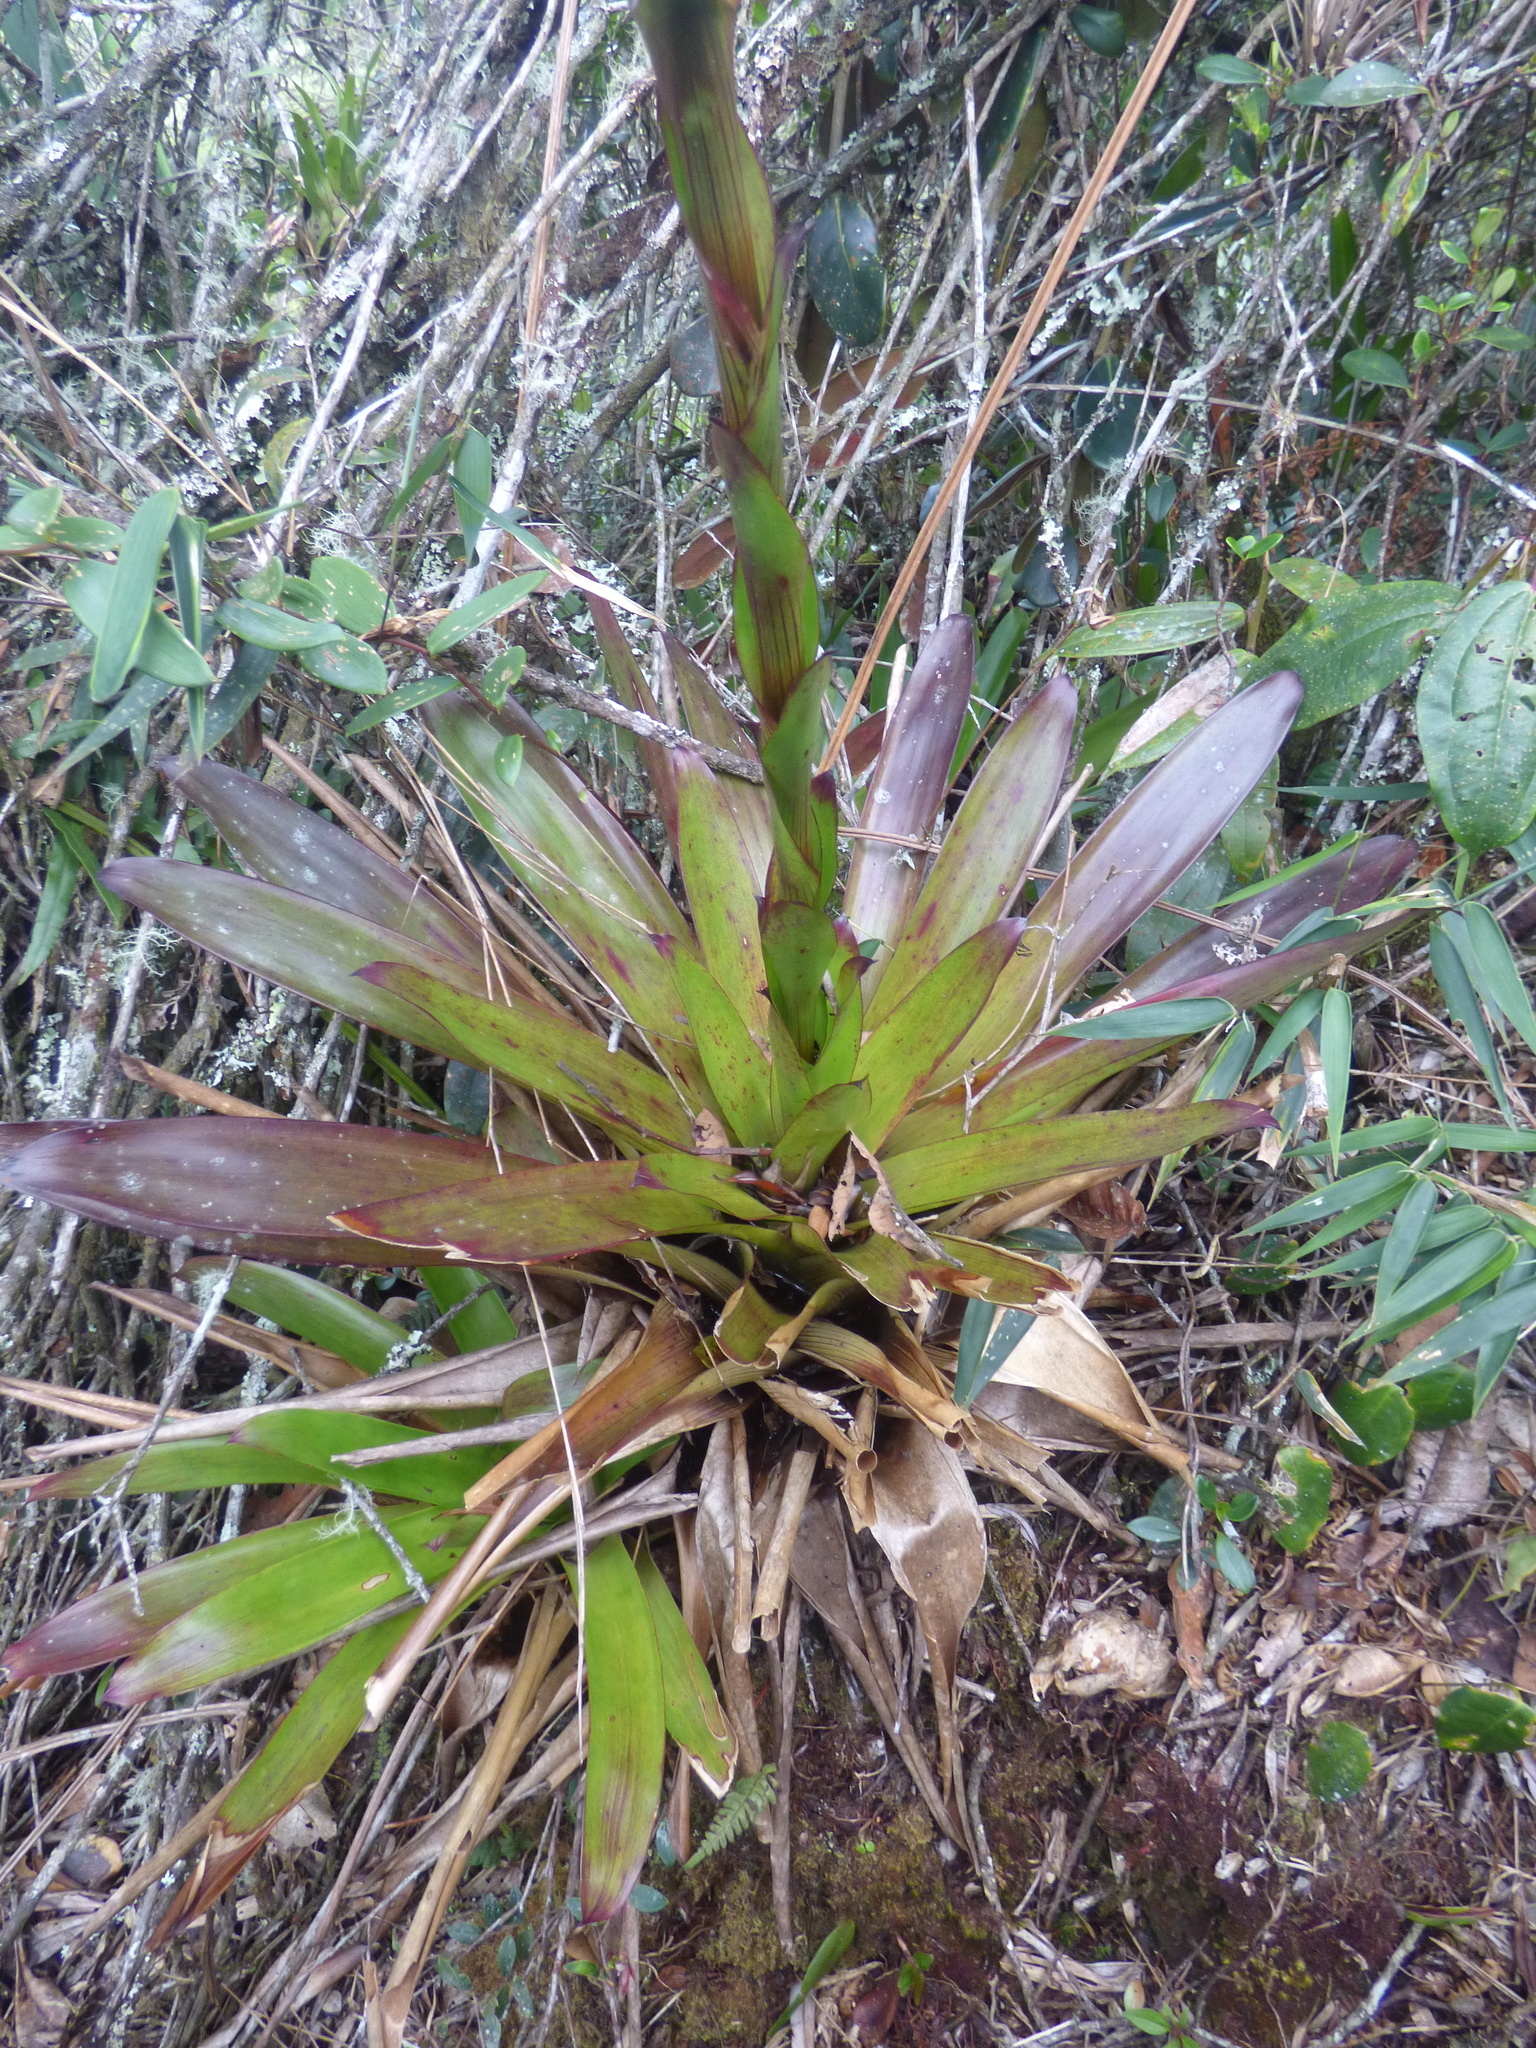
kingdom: Plantae
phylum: Tracheophyta
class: Liliopsida
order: Poales
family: Bromeliaceae
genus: Guzmania
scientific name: Guzmania coriostachya
